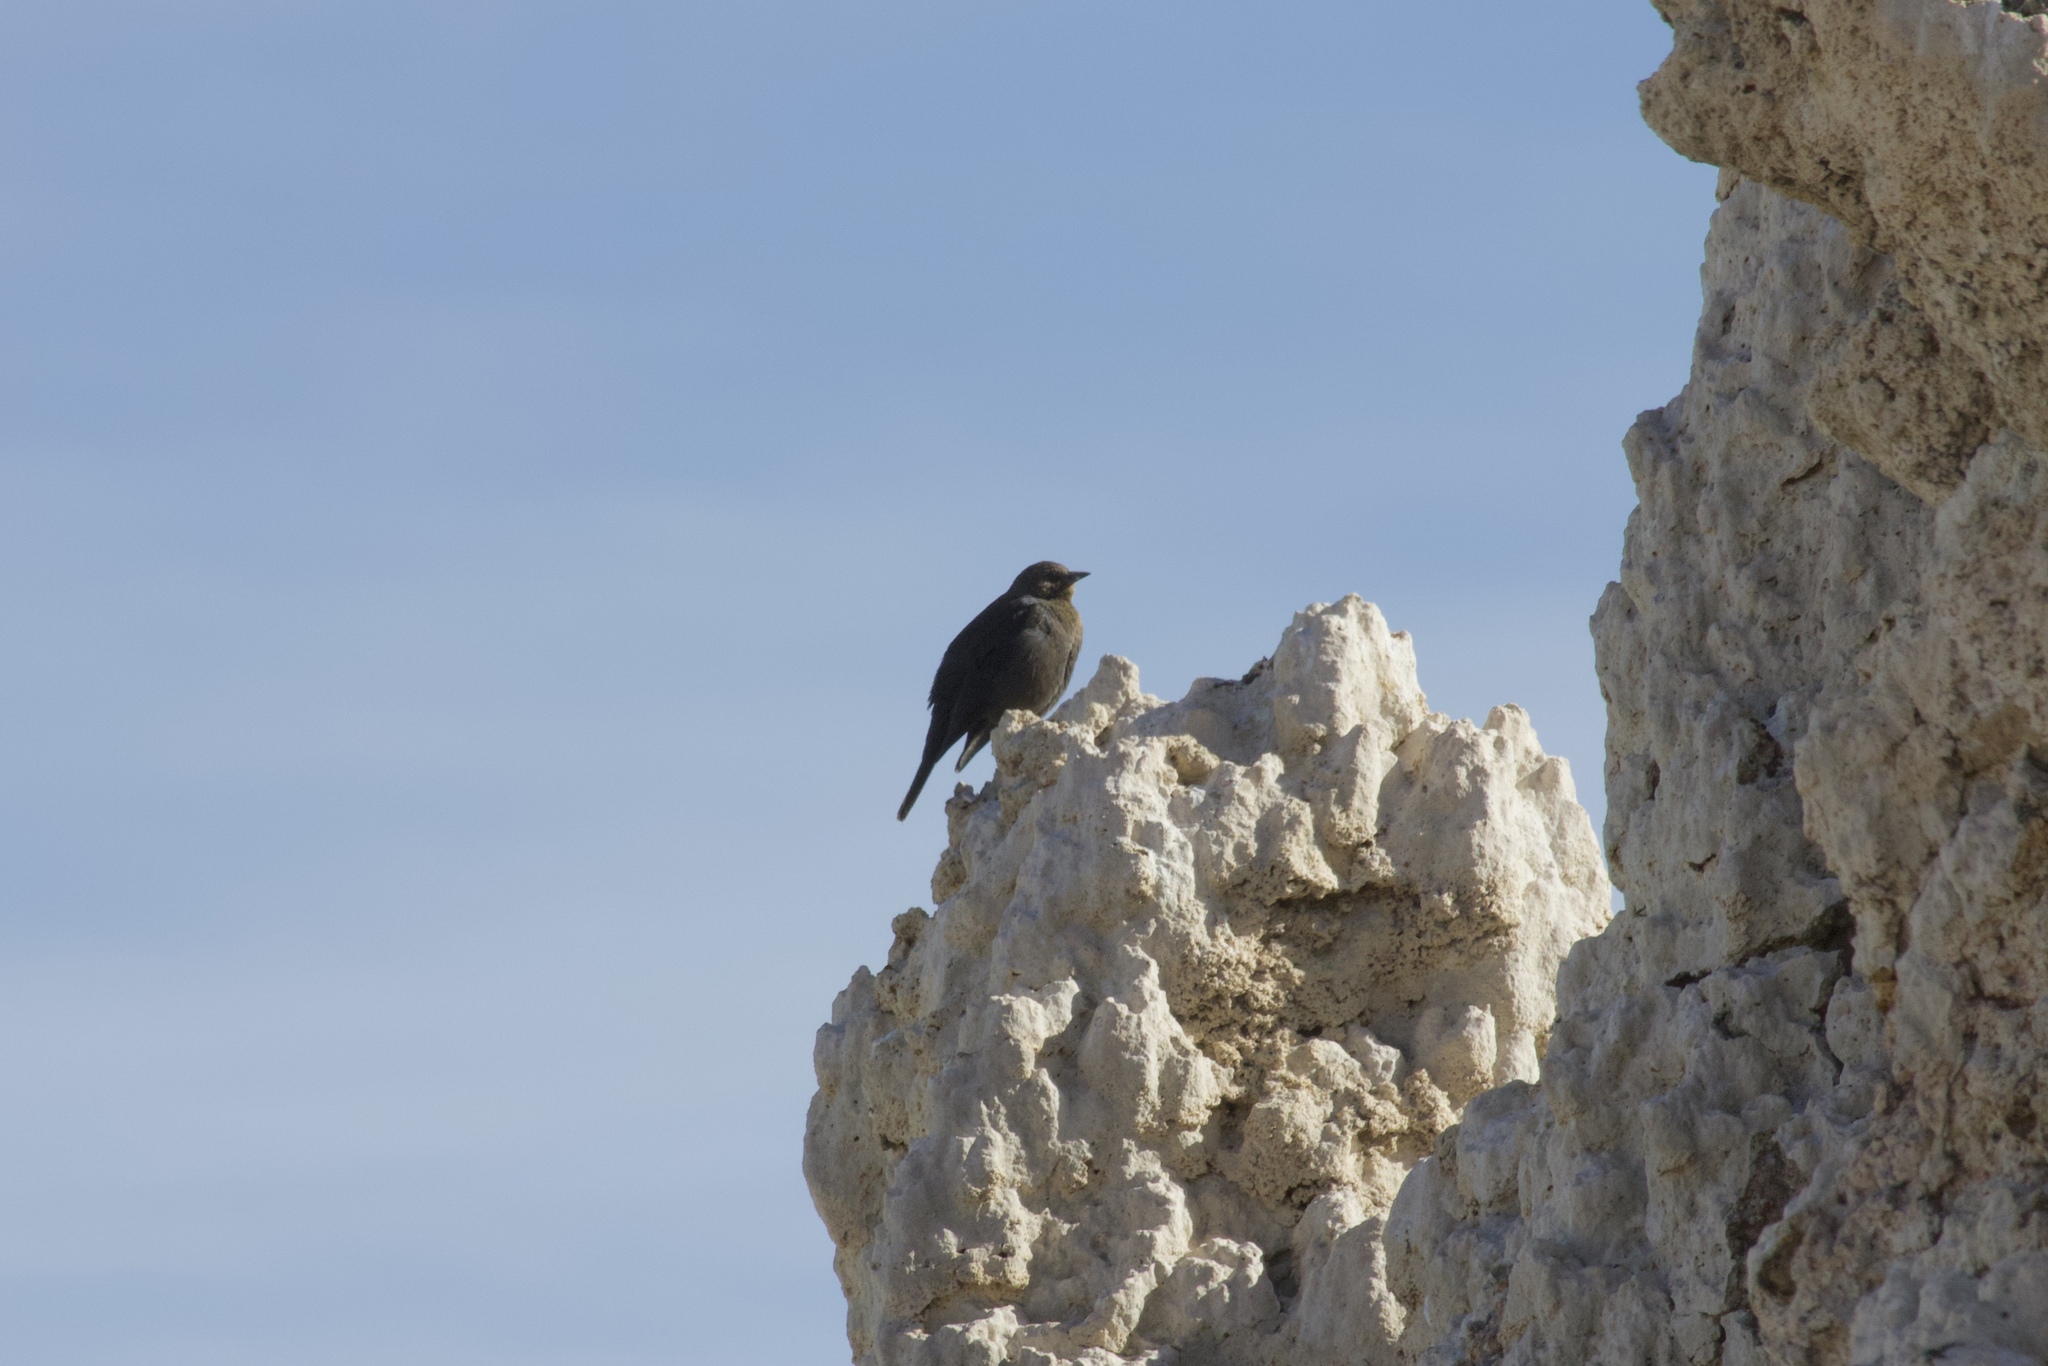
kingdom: Animalia
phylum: Chordata
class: Aves
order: Passeriformes
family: Icteridae
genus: Euphagus
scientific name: Euphagus cyanocephalus
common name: Brewer's blackbird
